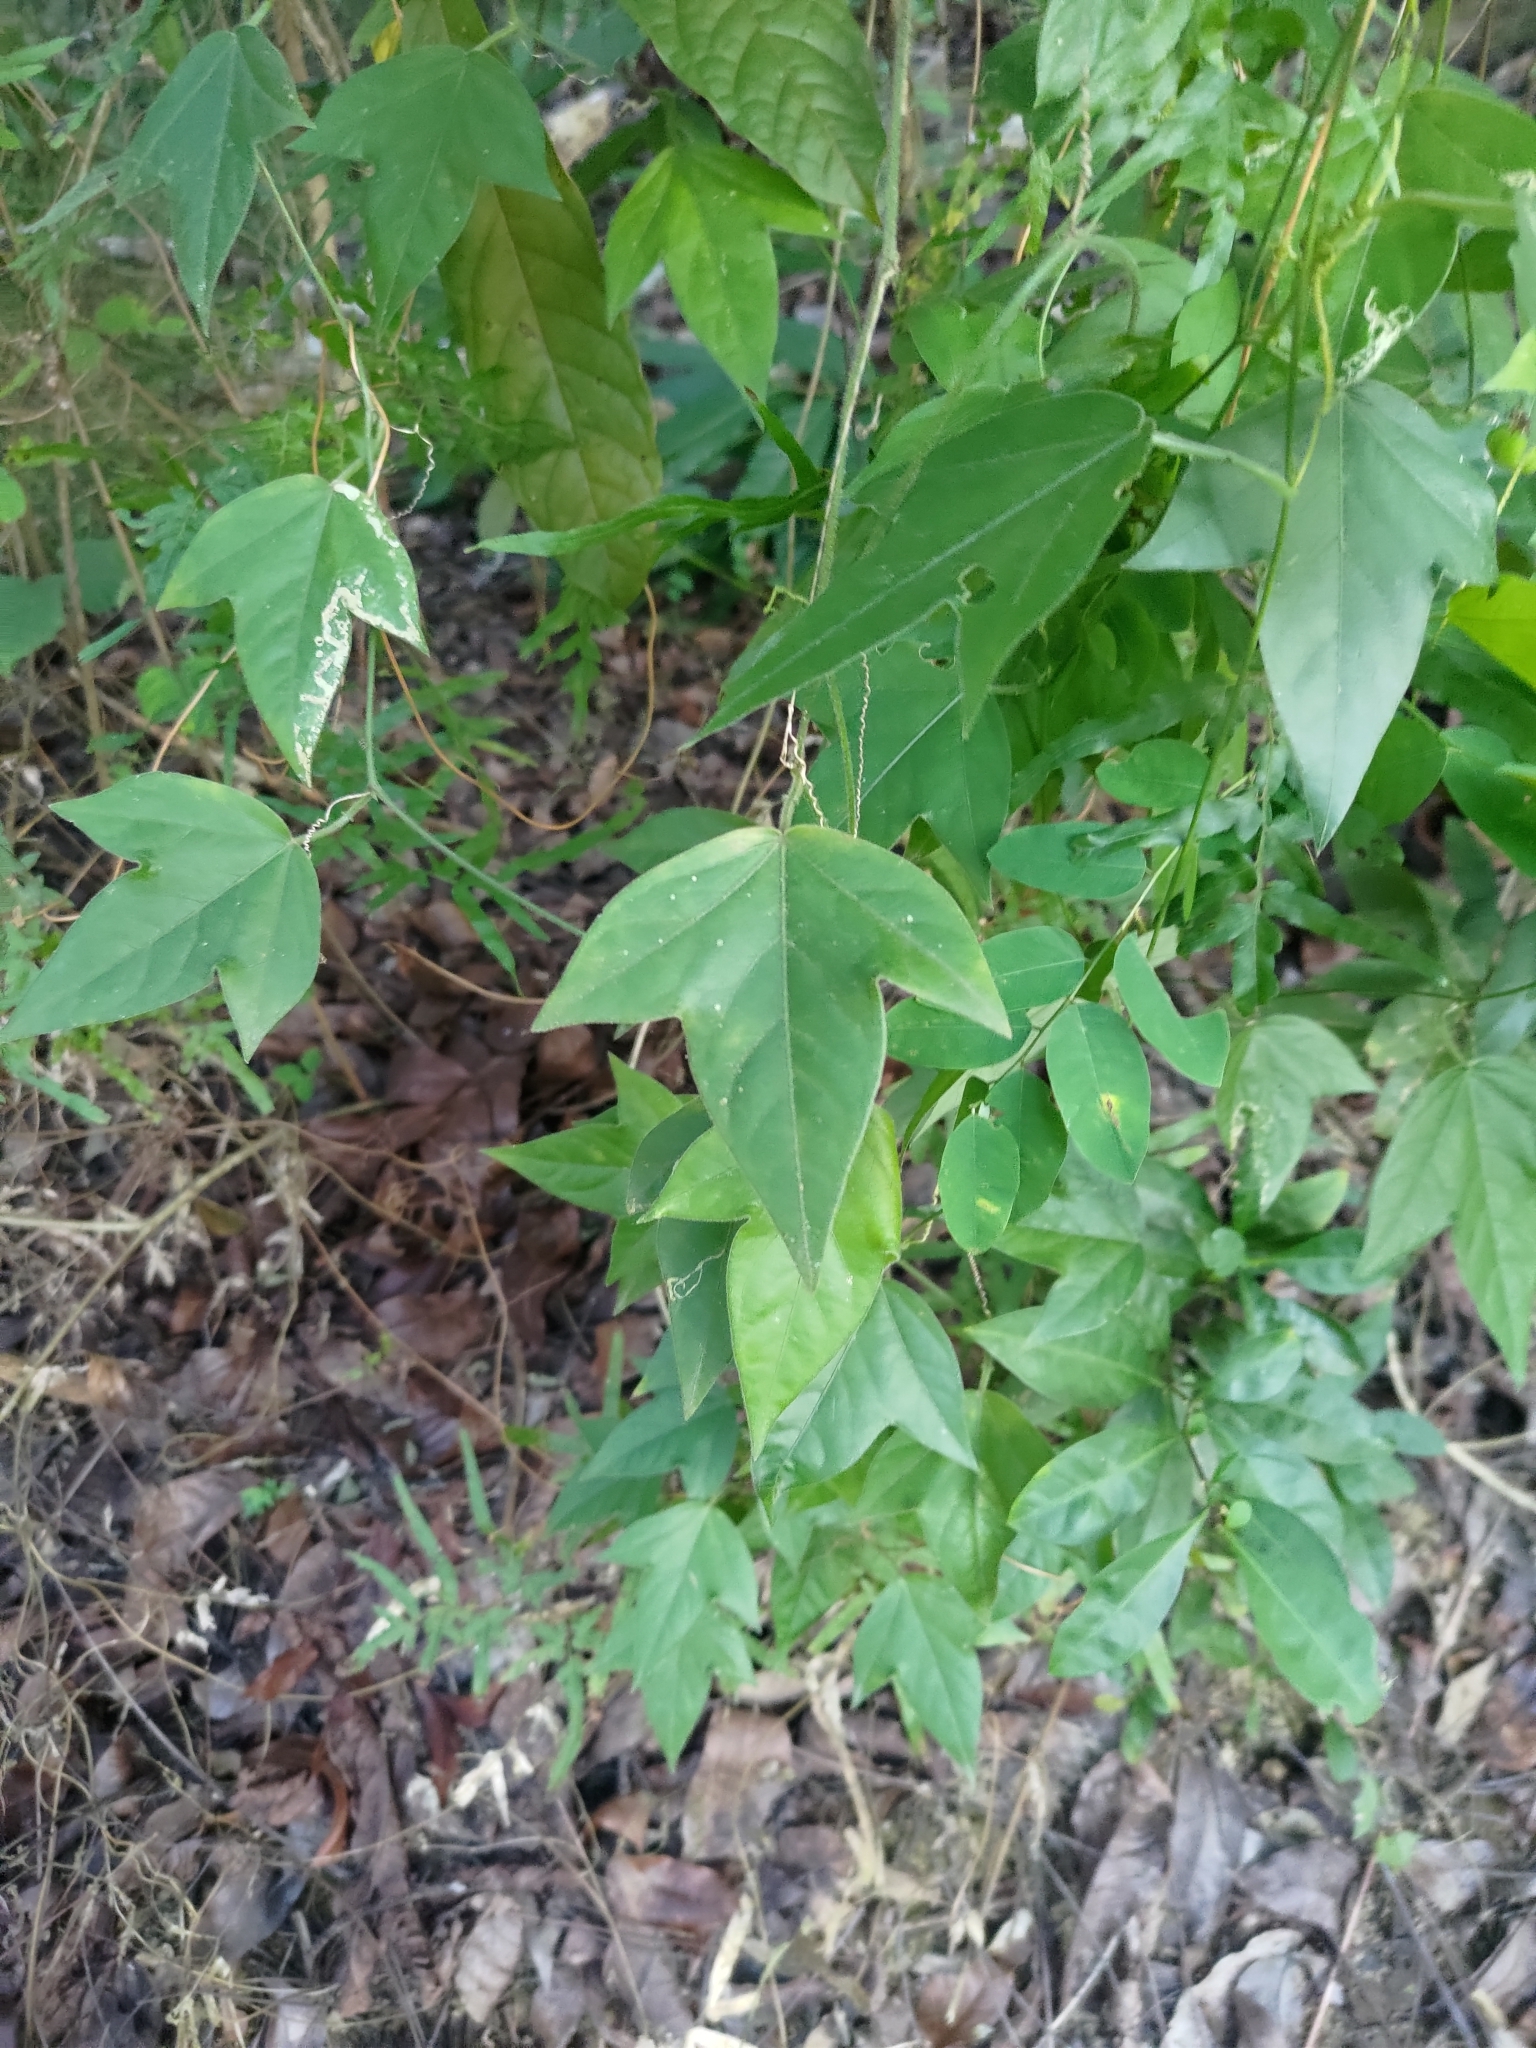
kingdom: Plantae
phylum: Tracheophyta
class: Magnoliopsida
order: Malpighiales
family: Passifloraceae
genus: Passiflora
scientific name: Passiflora suberosa
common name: Wild passionfruit
